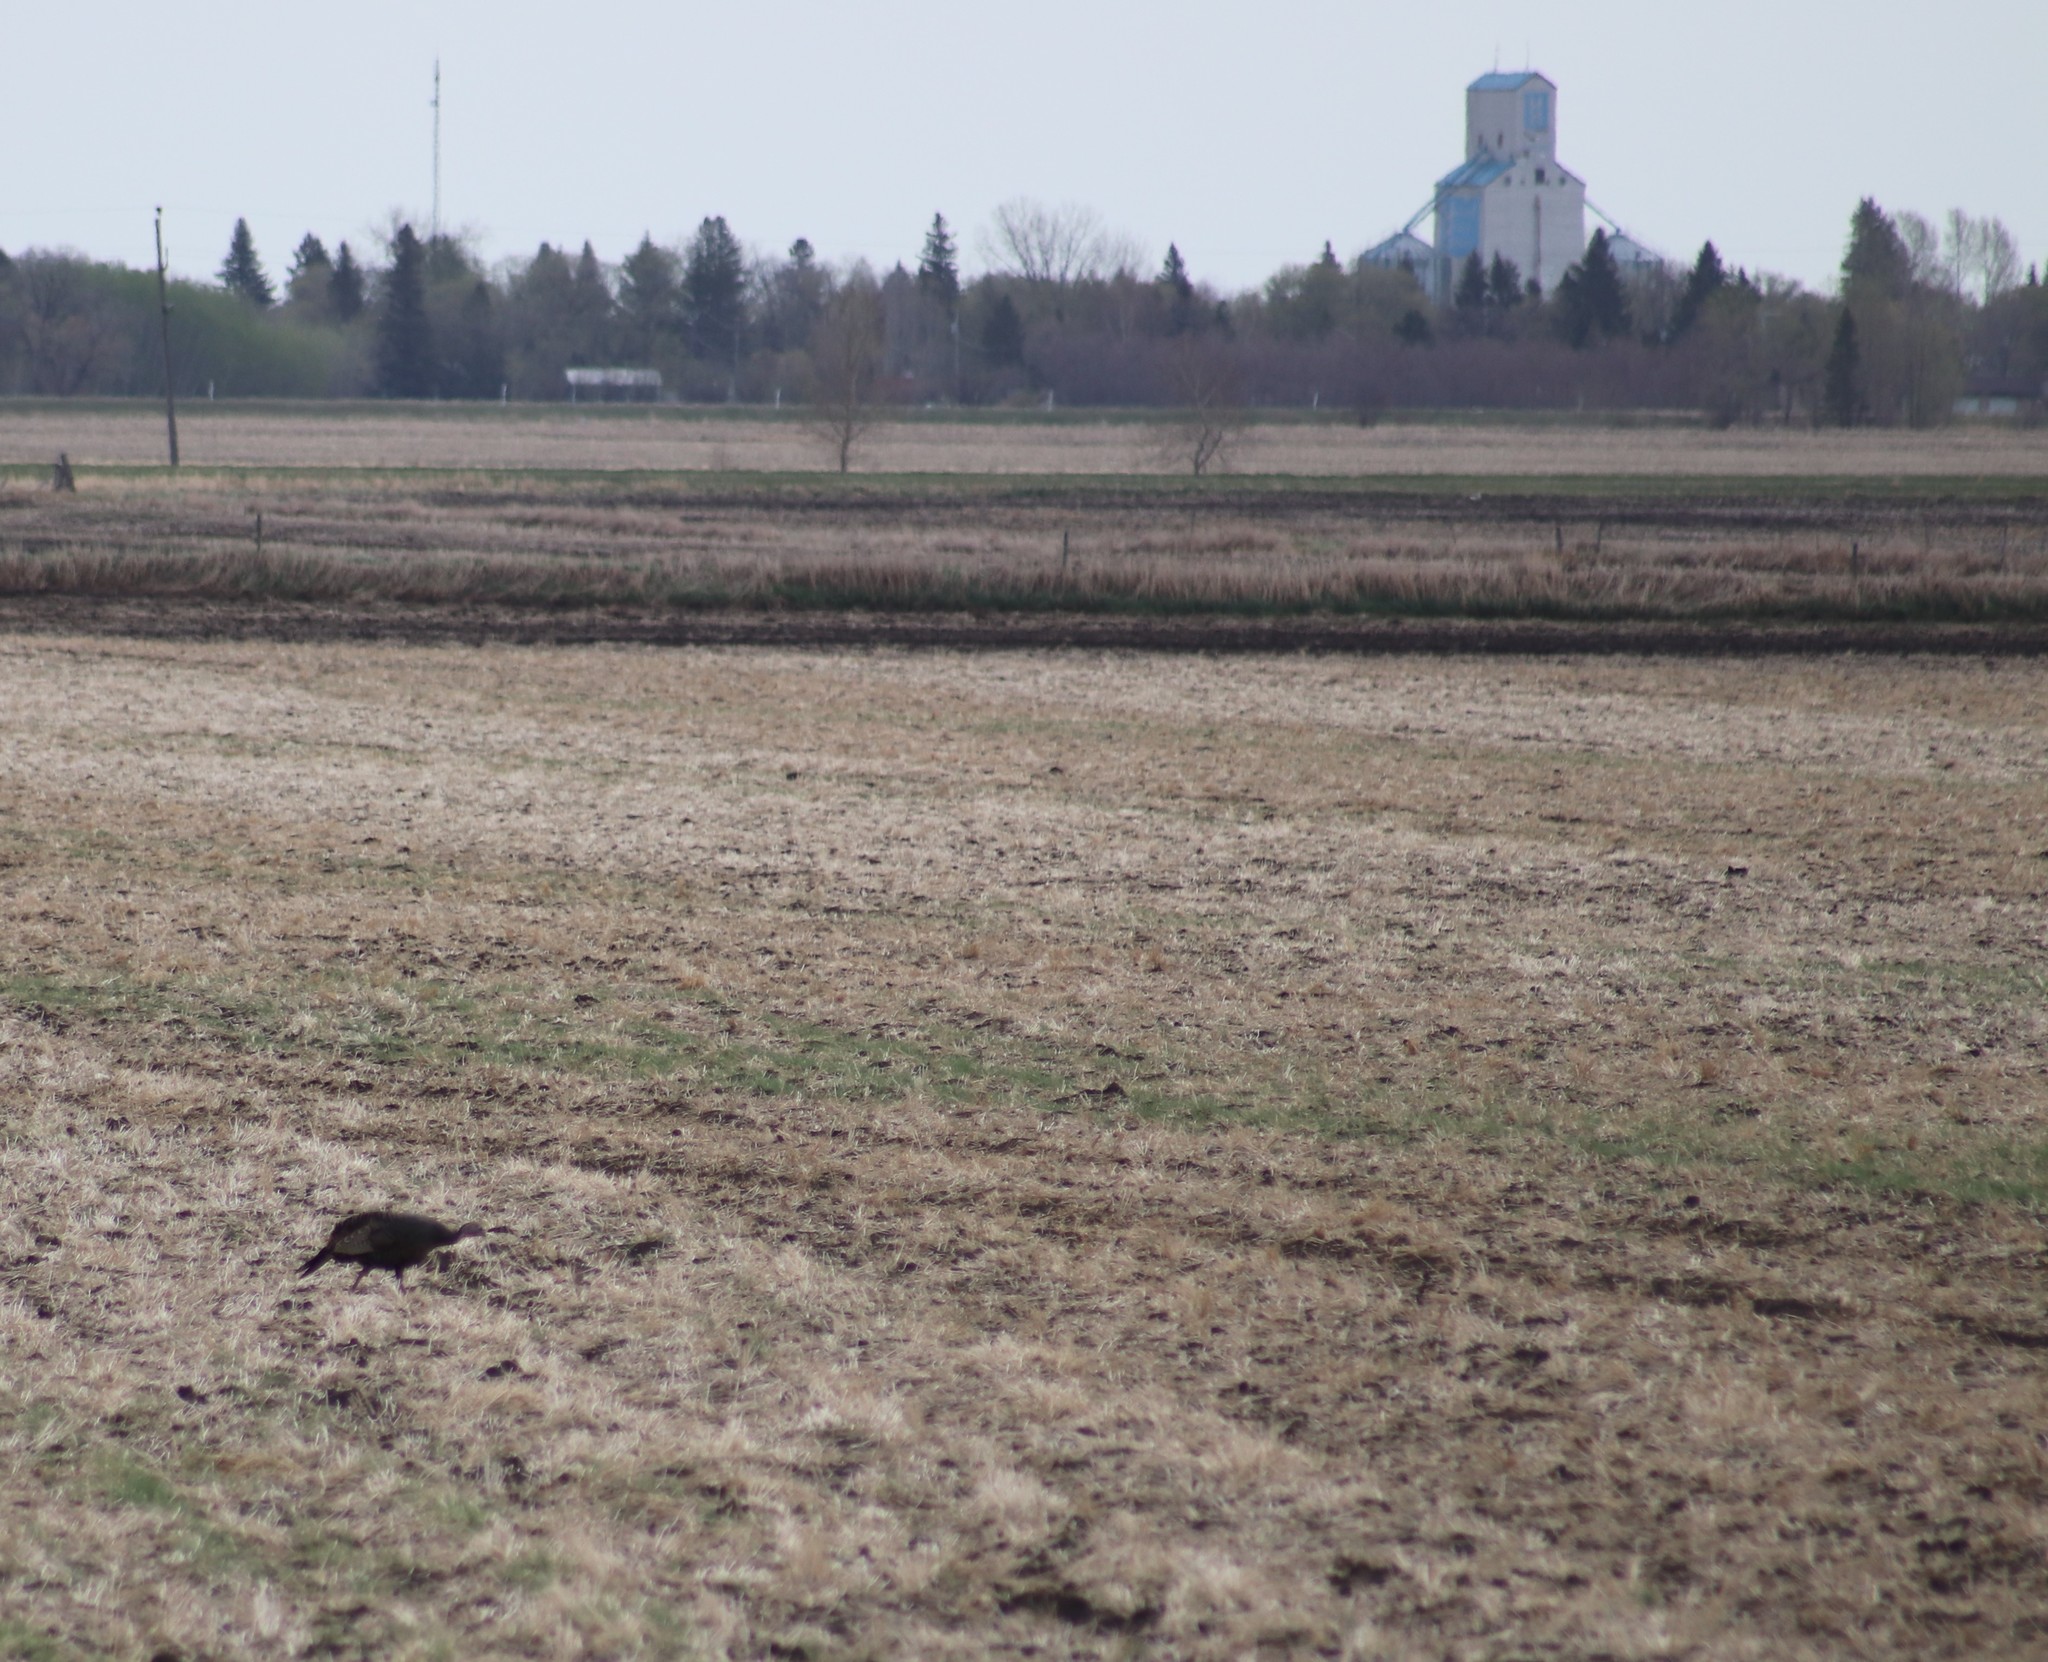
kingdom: Animalia
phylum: Chordata
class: Aves
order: Galliformes
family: Phasianidae
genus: Meleagris
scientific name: Meleagris gallopavo
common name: Wild turkey
